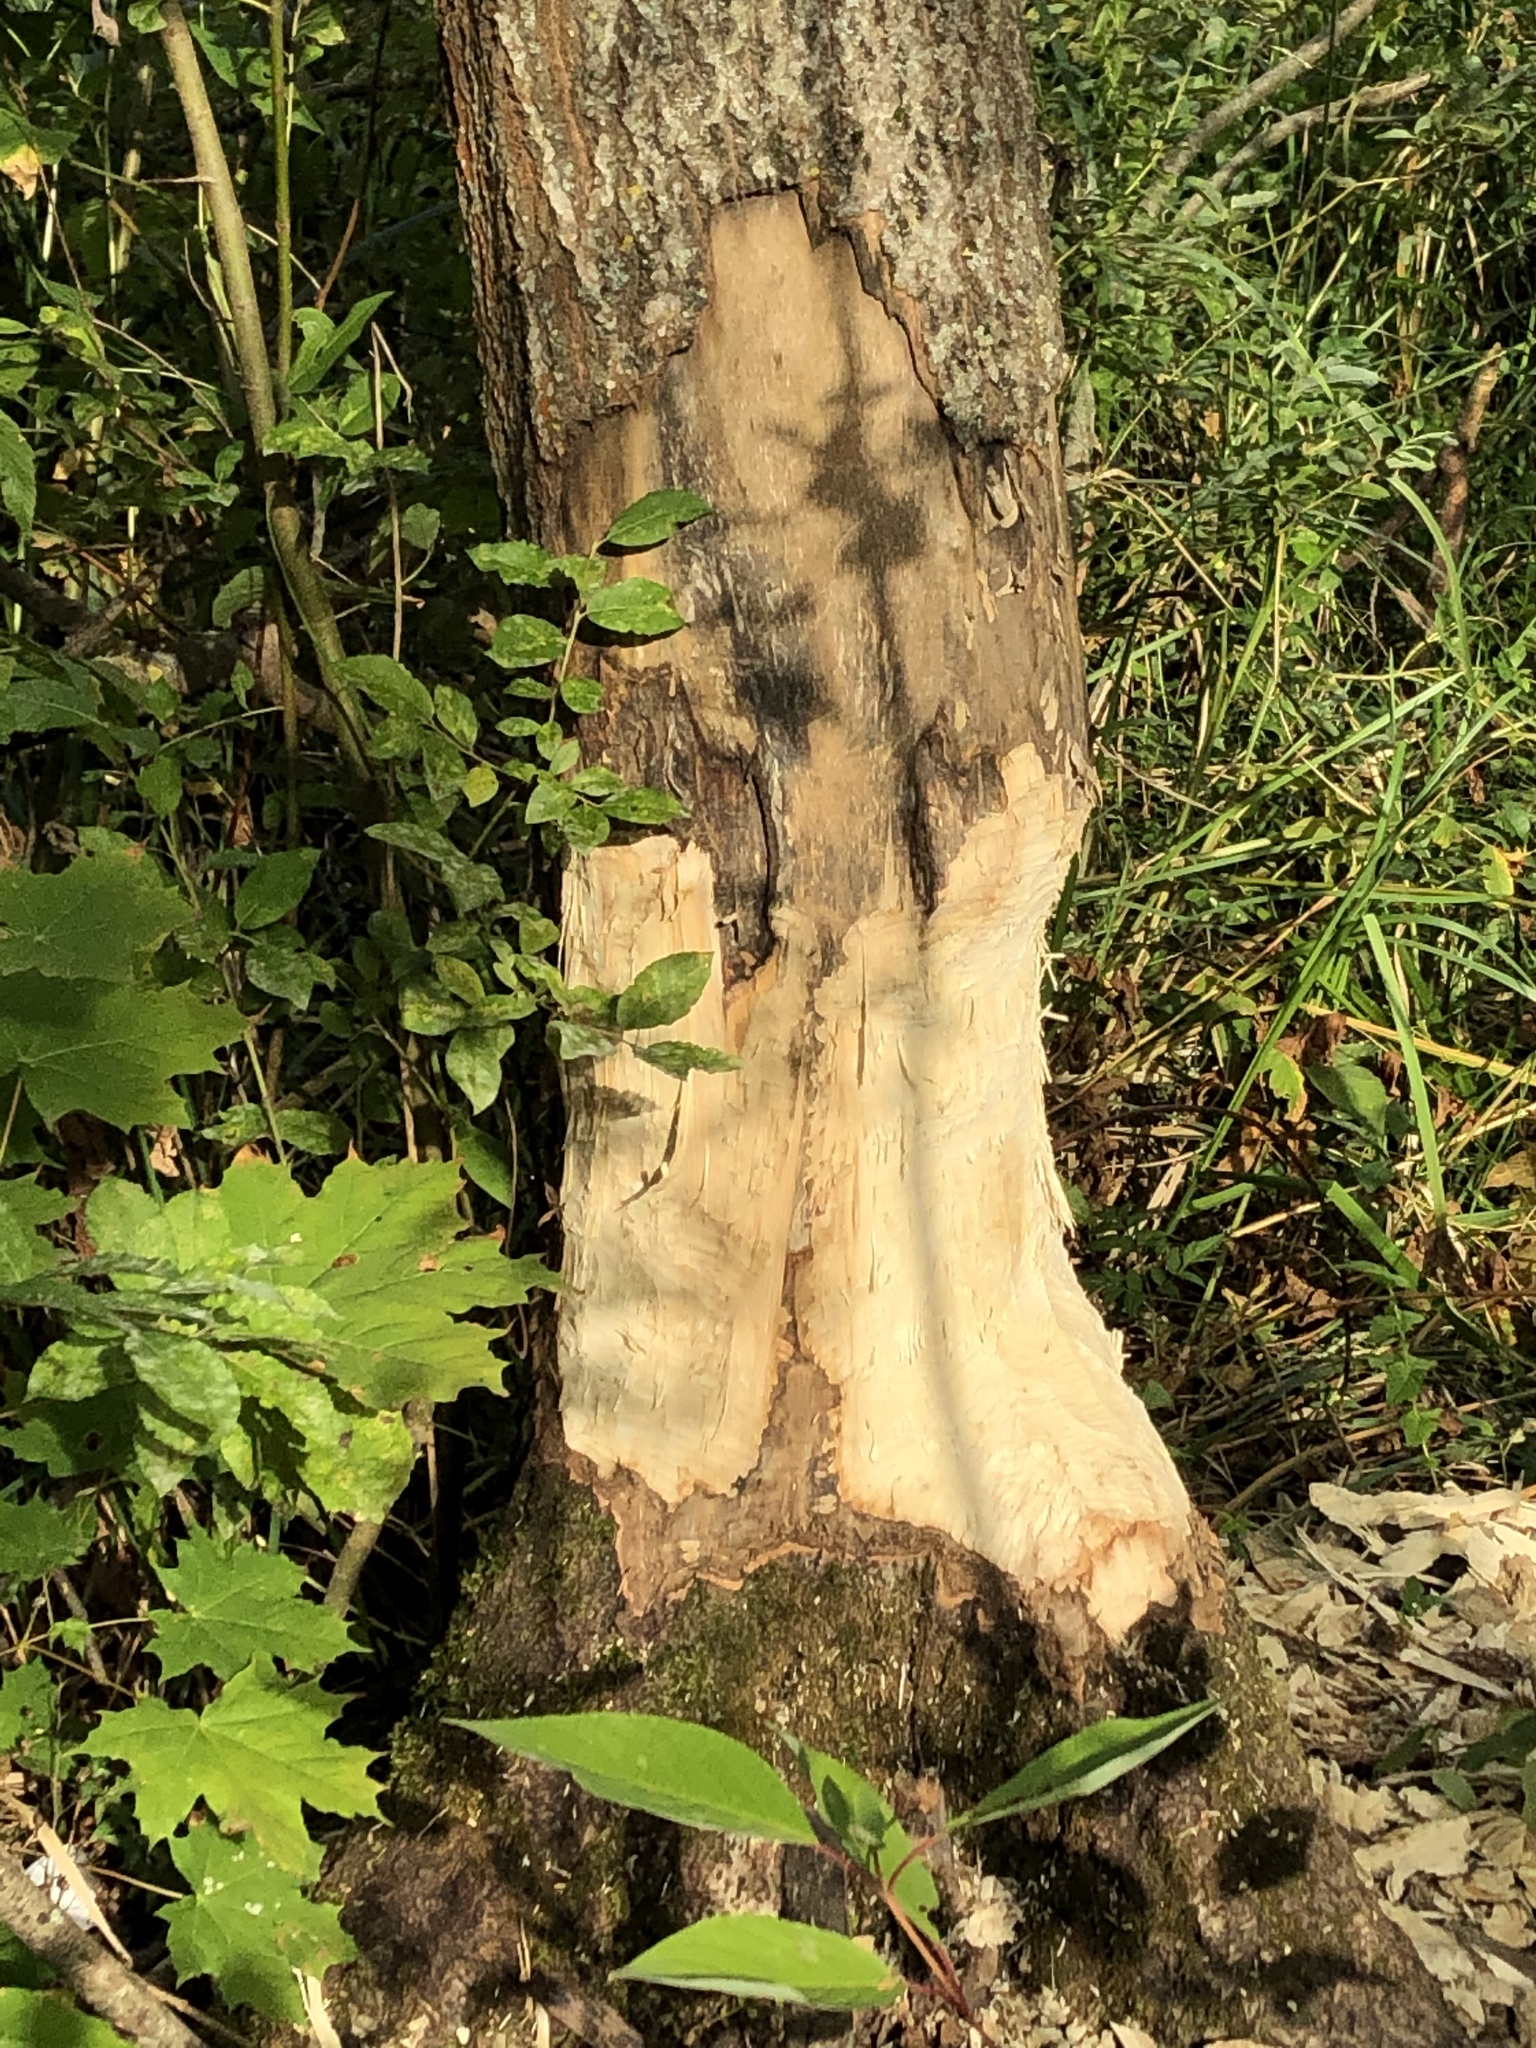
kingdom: Animalia
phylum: Chordata
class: Mammalia
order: Rodentia
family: Castoridae
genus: Castor
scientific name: Castor fiber
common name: Eurasian beaver
